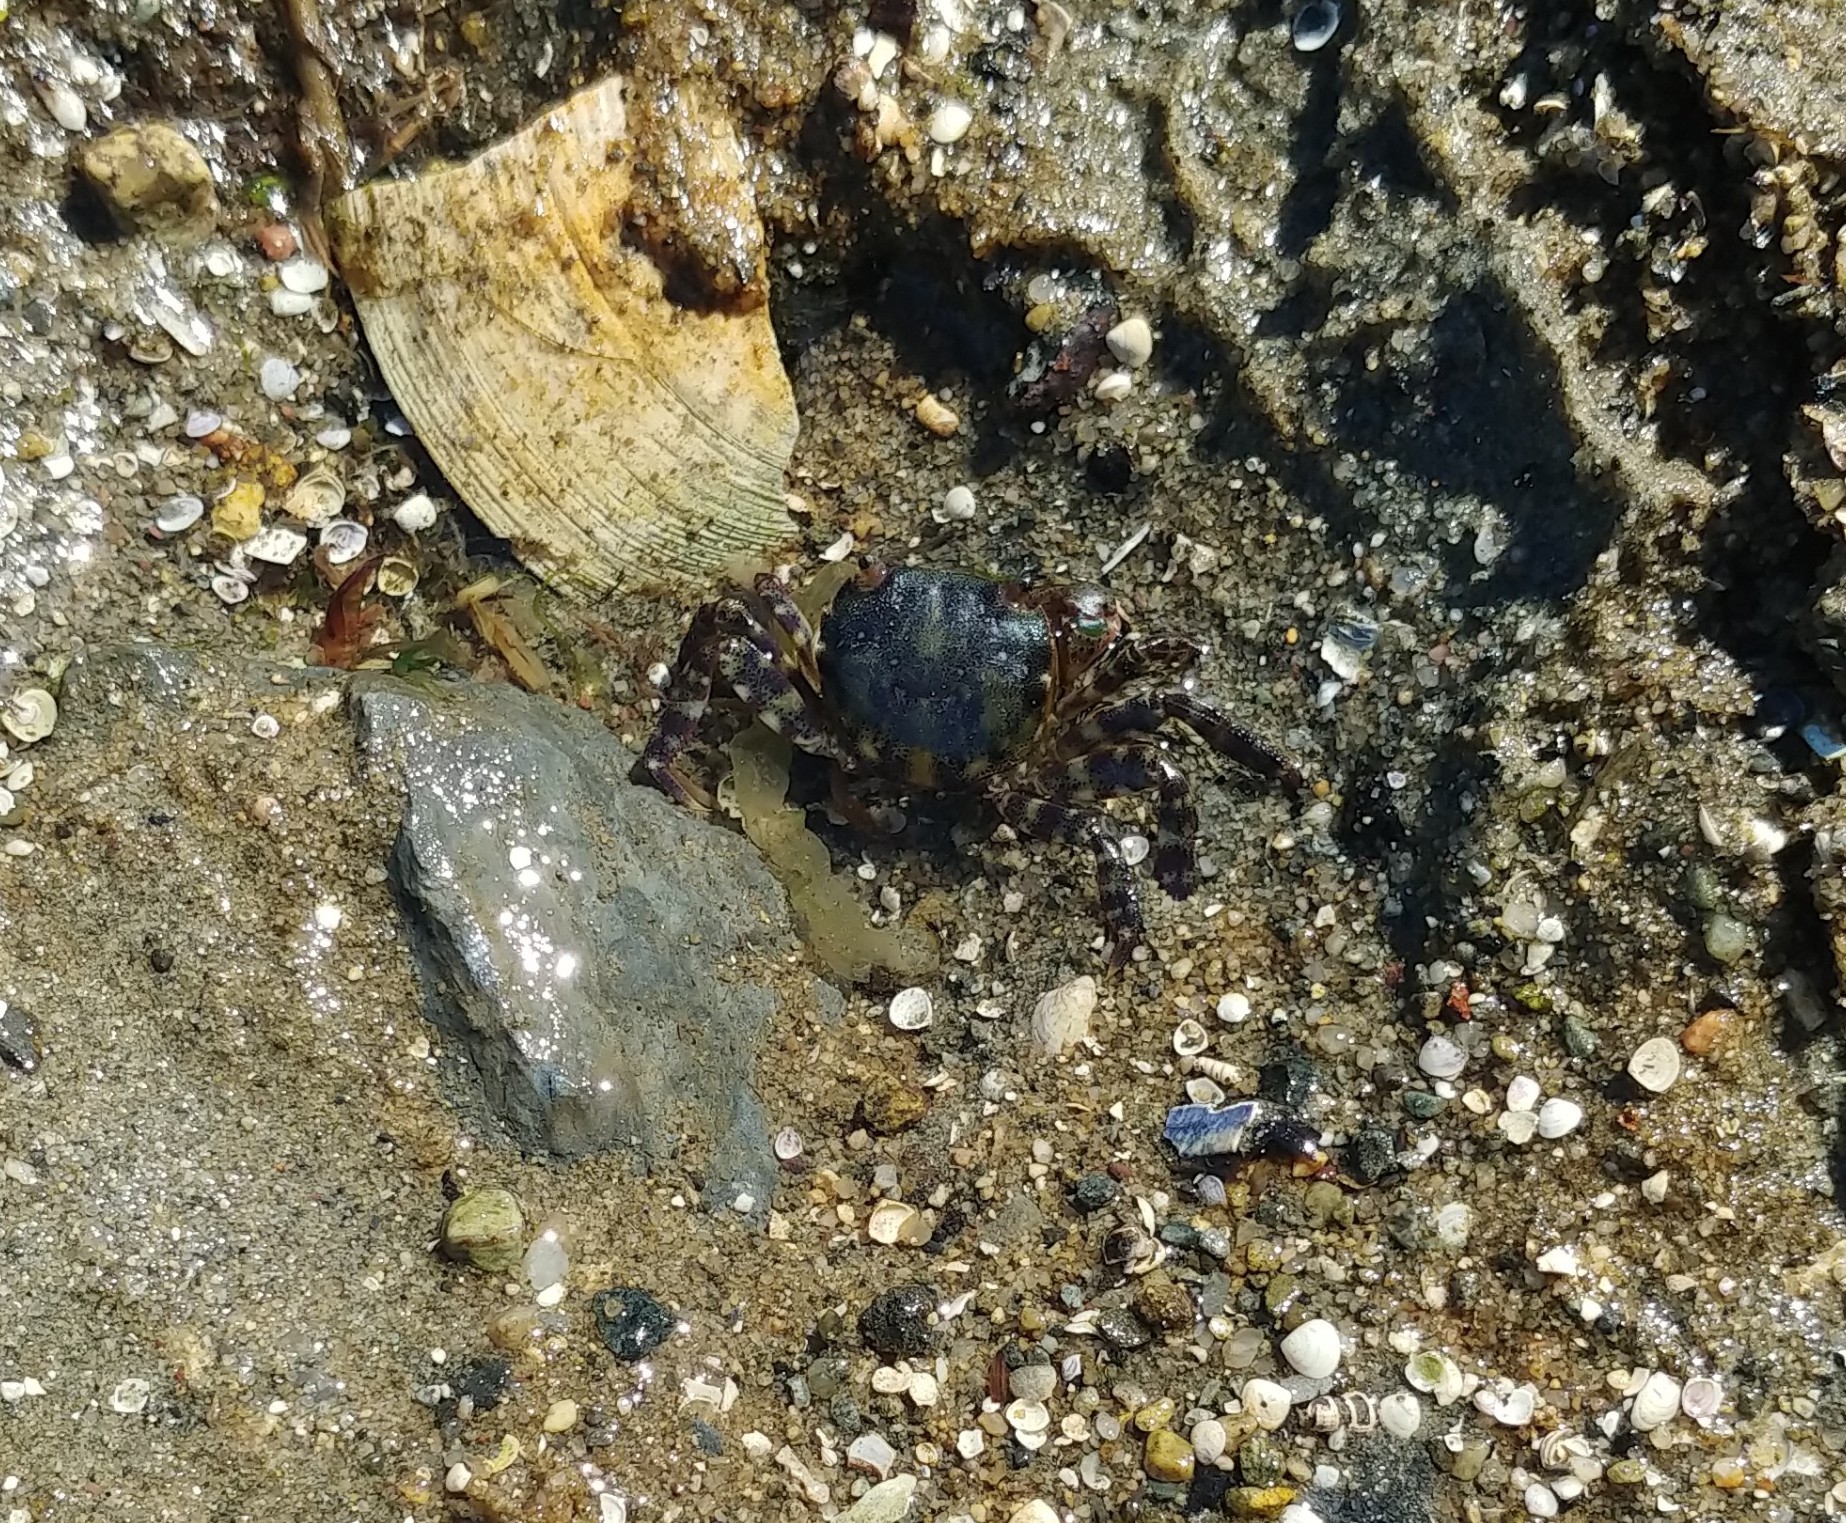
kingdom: Animalia
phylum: Arthropoda
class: Malacostraca
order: Decapoda
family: Varunidae
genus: Hemigrapsus
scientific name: Hemigrapsus sanguineus
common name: Asian shore crab
